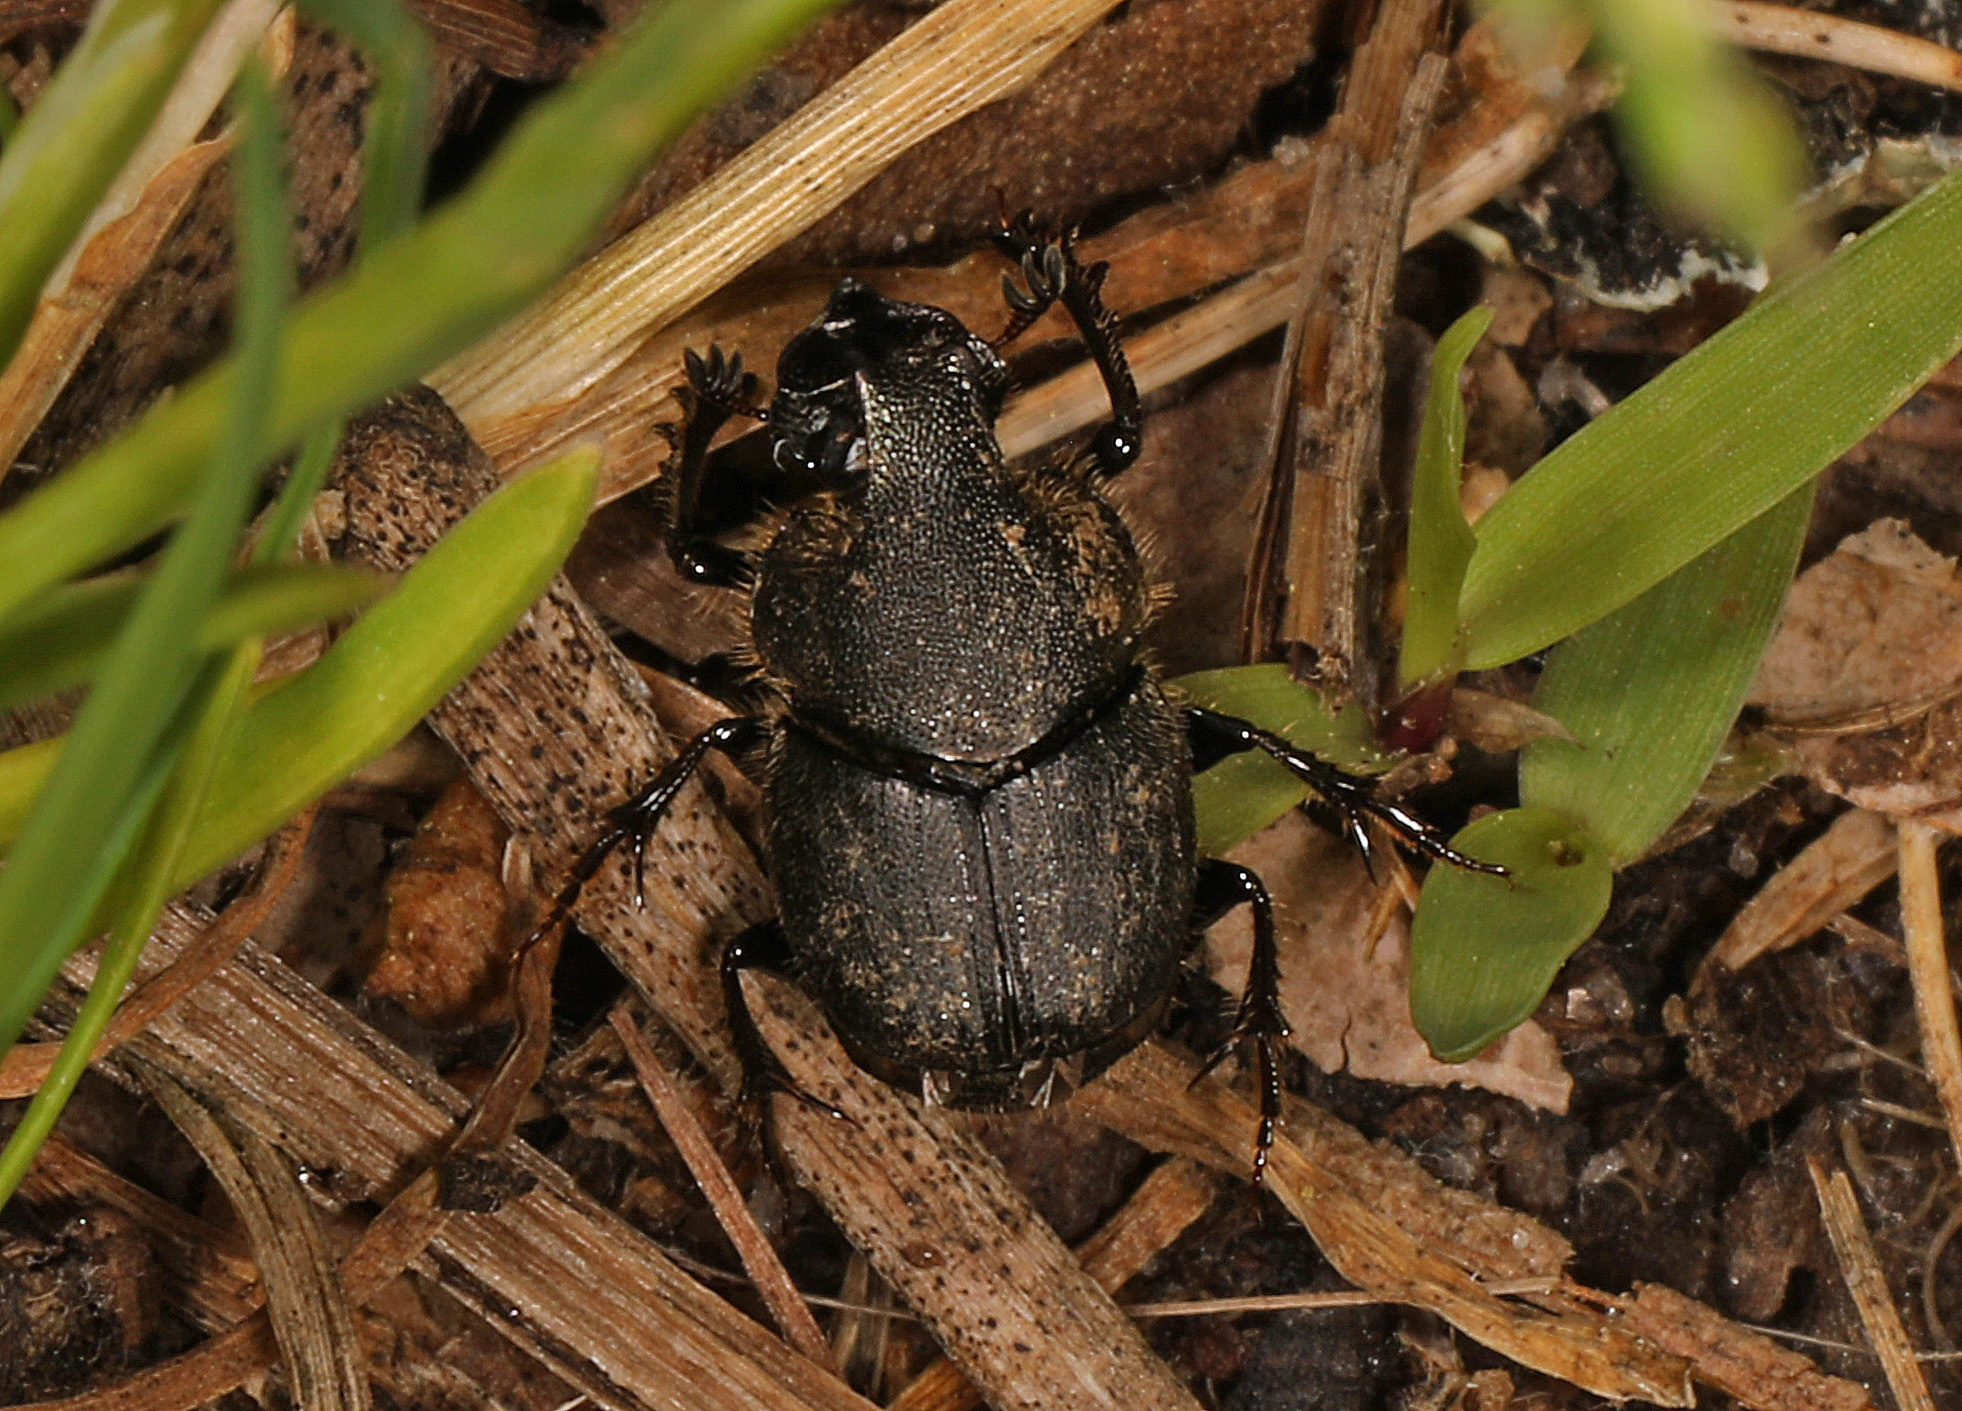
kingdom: Animalia
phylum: Arthropoda
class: Insecta
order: Coleoptera
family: Scarabaeidae
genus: Onthophagus
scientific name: Onthophagus hecate
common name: Scooped scarab
